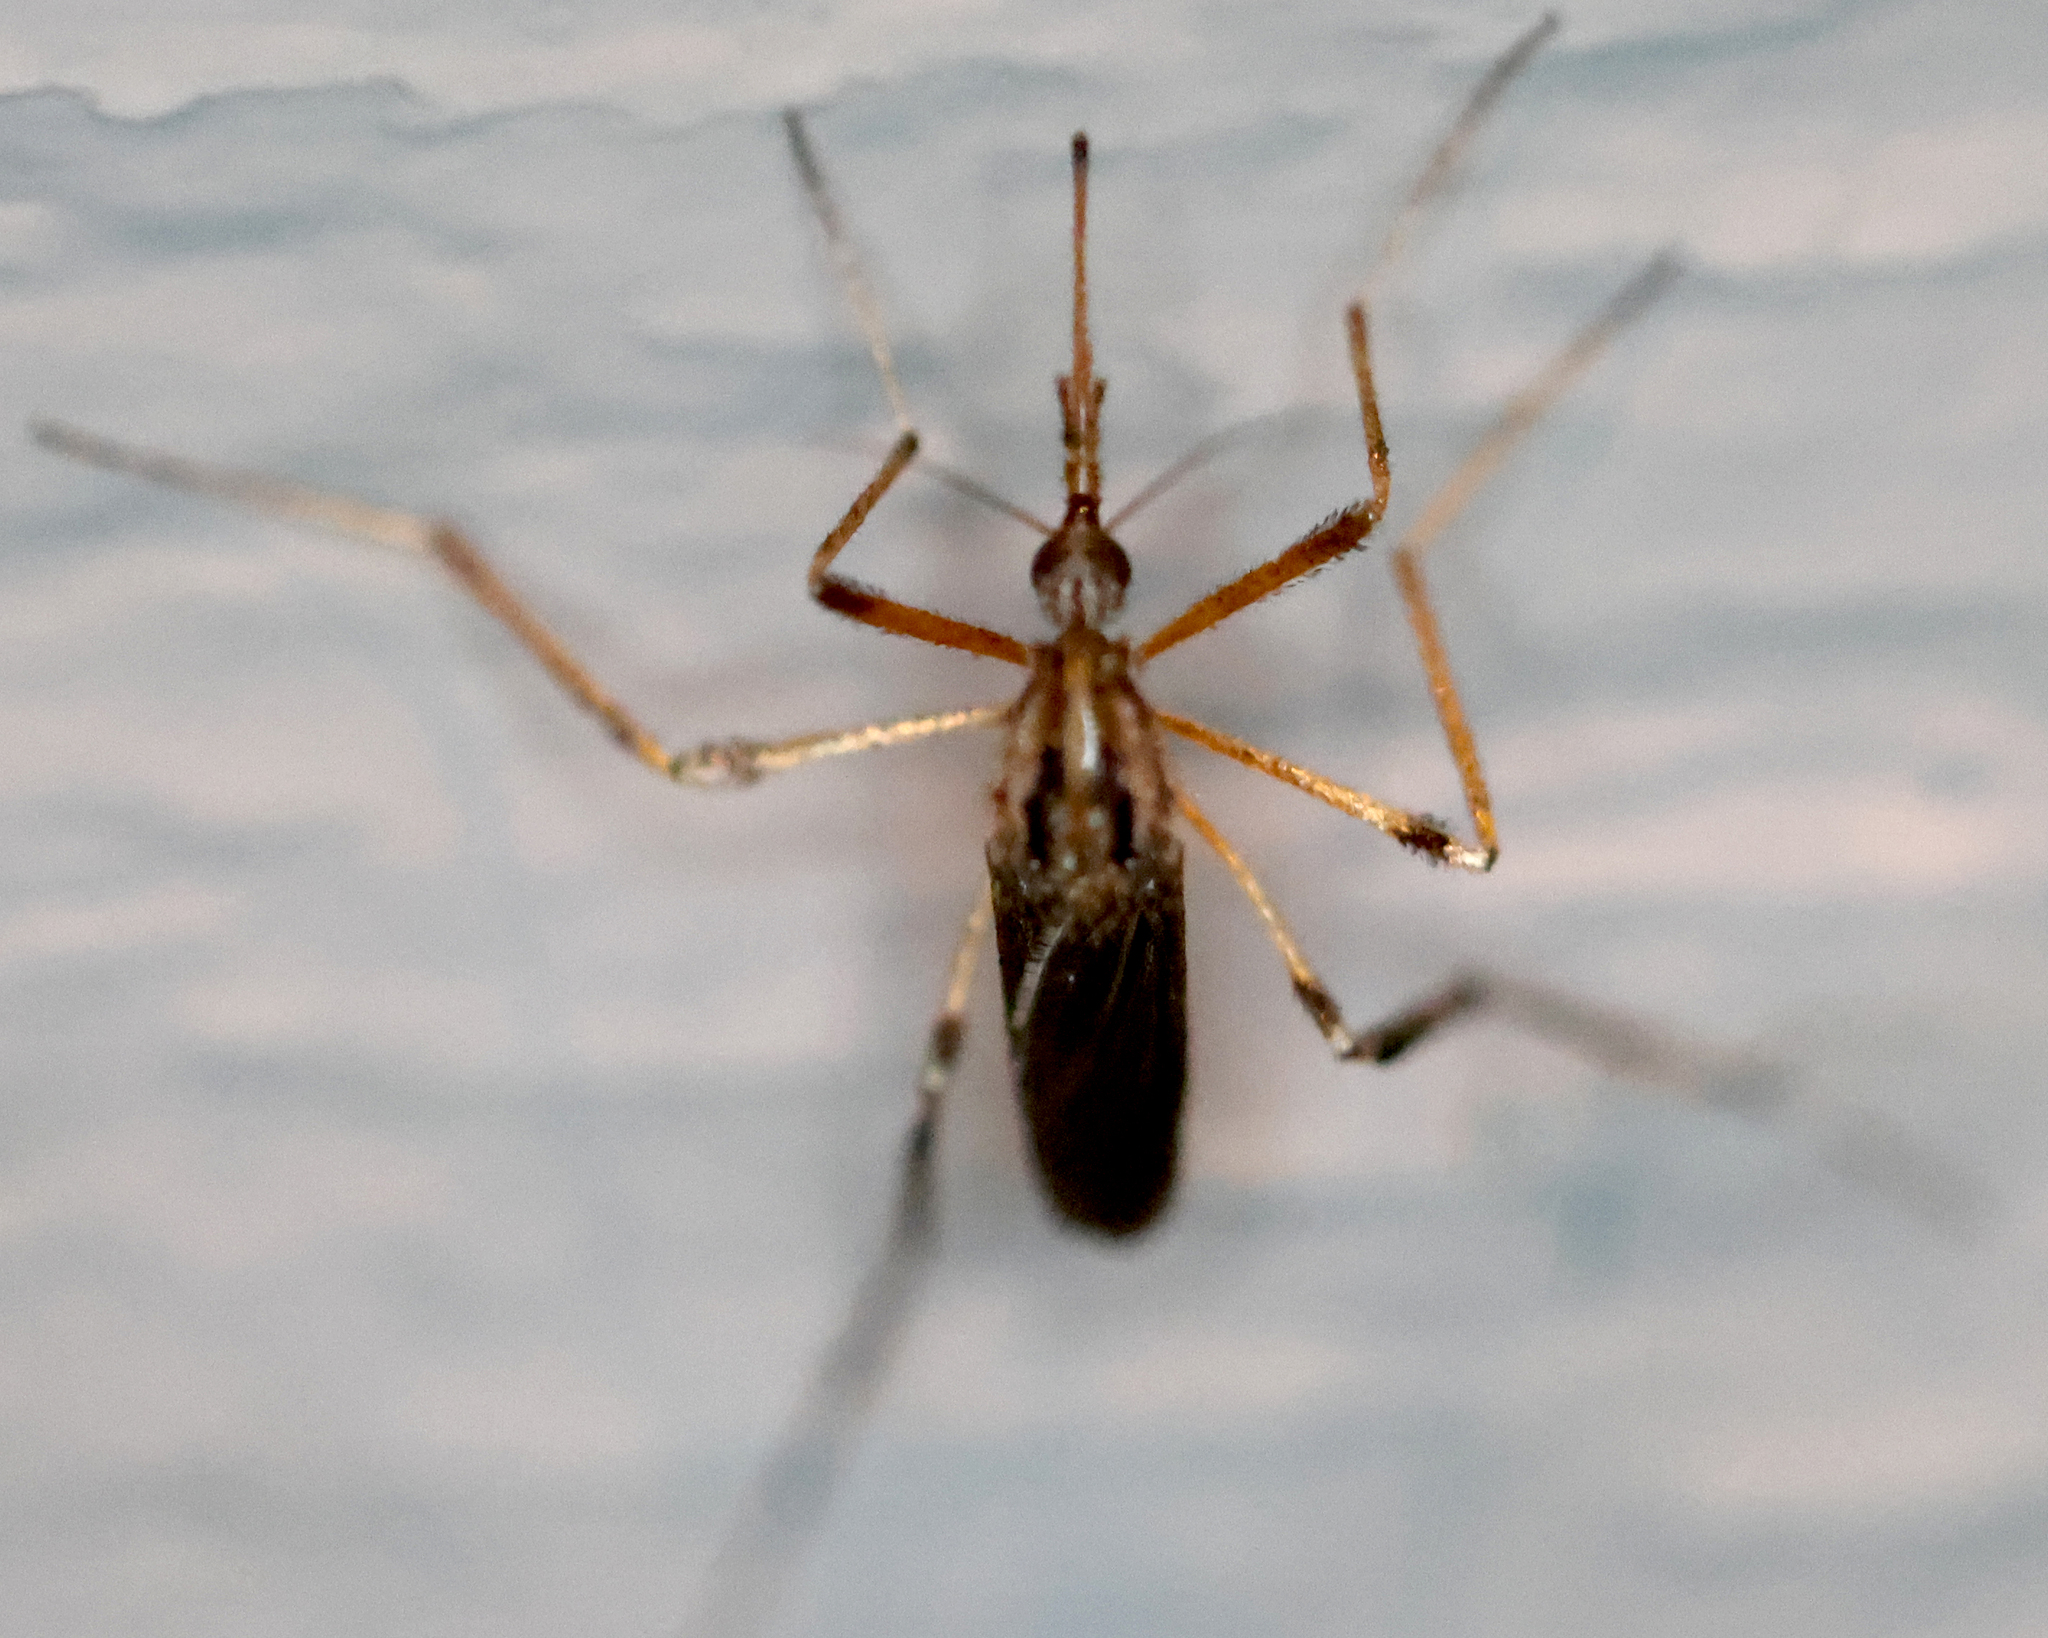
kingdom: Animalia
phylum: Arthropoda
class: Insecta
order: Diptera
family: Culicidae
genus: Psorophora
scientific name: Psorophora ciliata
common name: Gallinipper
